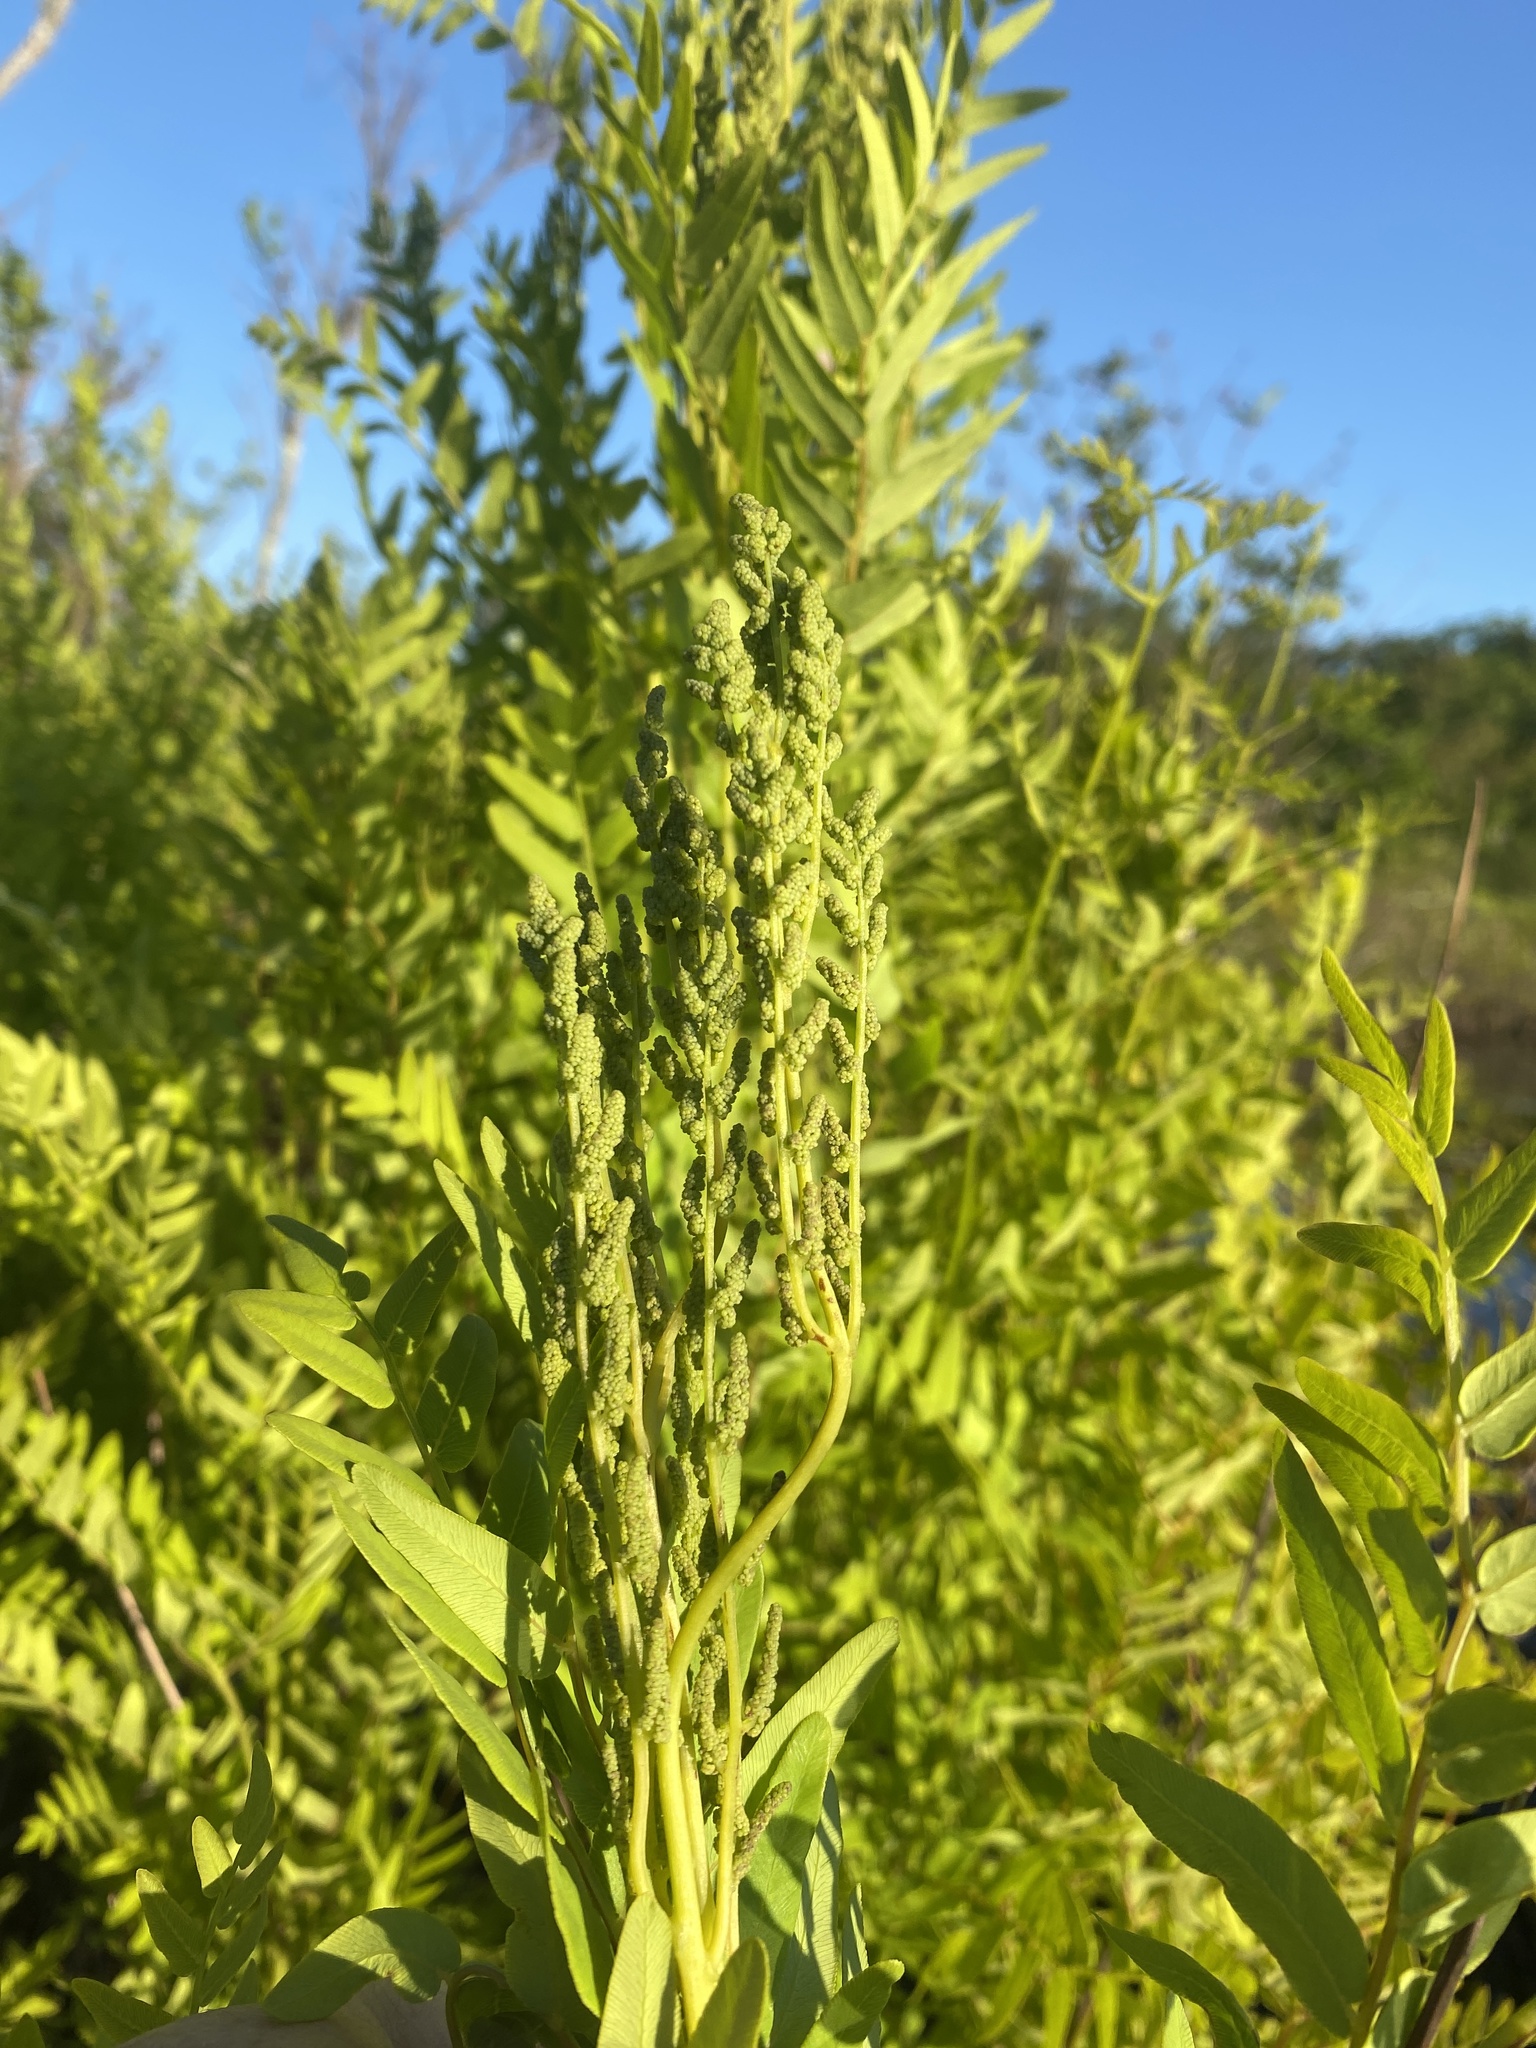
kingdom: Plantae
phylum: Tracheophyta
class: Polypodiopsida
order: Osmundales
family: Osmundaceae
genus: Osmunda
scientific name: Osmunda spectabilis
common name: American royal fern
